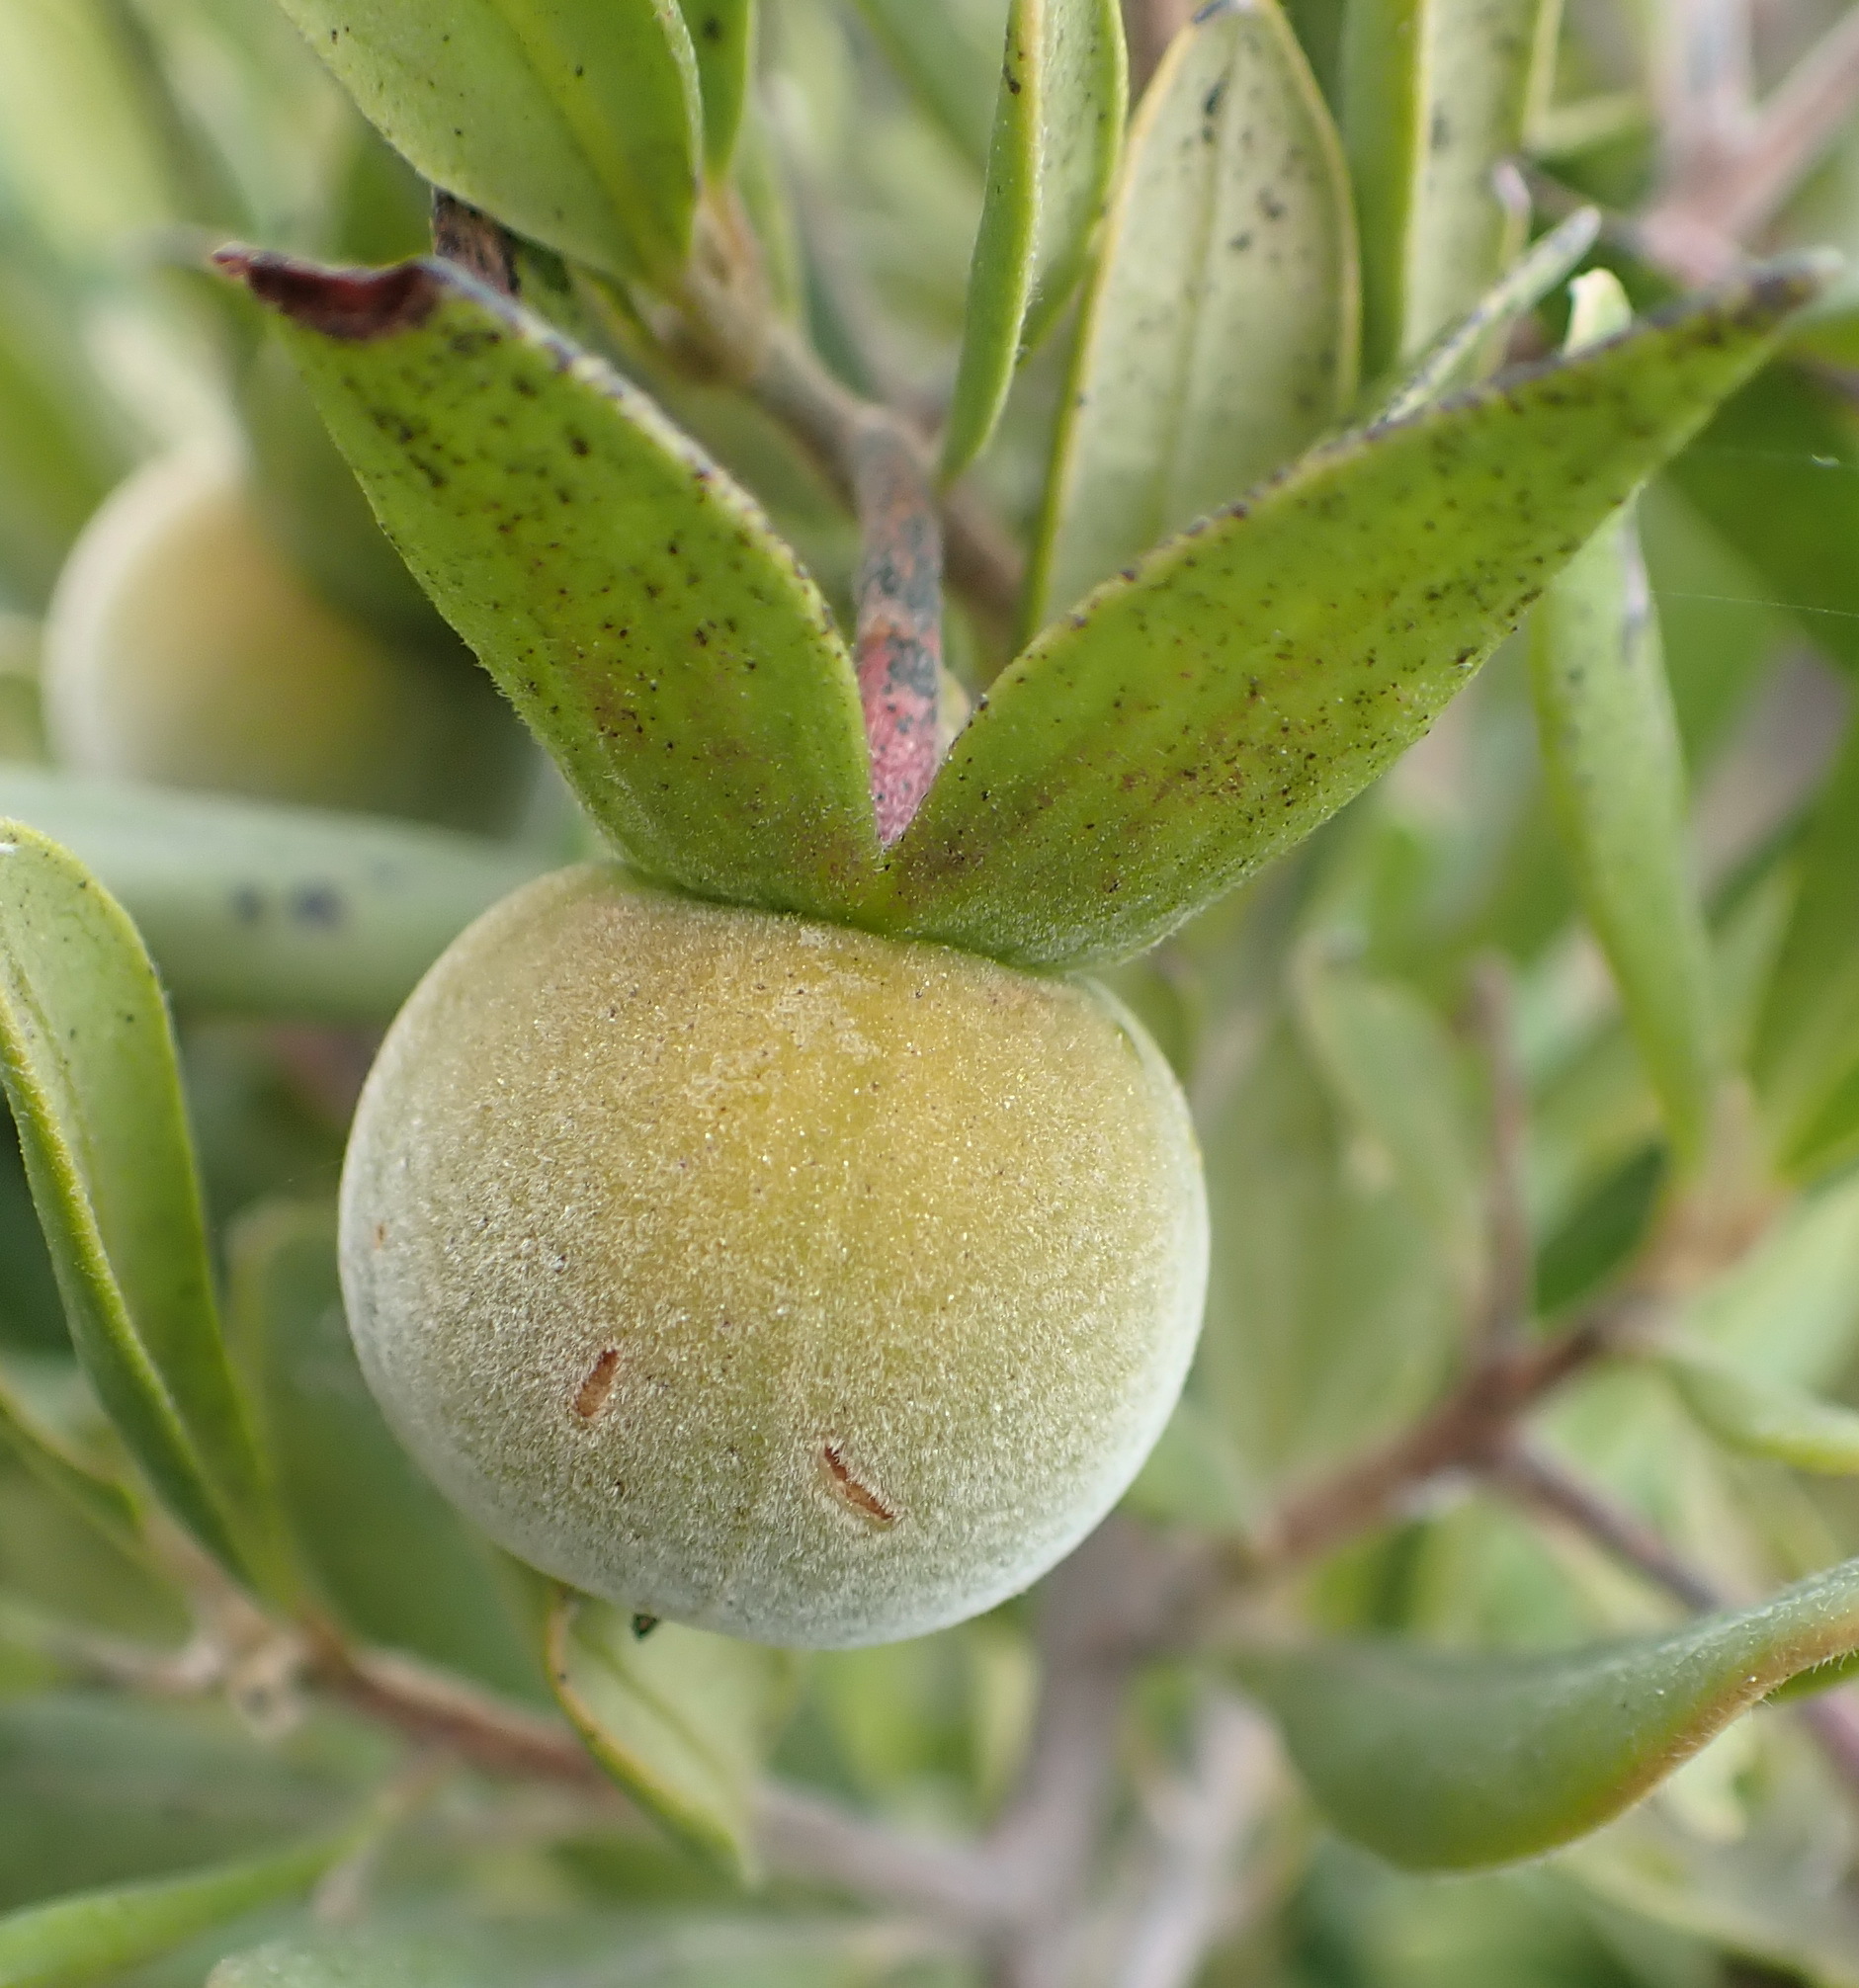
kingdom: Plantae
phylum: Tracheophyta
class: Magnoliopsida
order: Ericales
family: Ebenaceae
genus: Diospyros
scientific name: Diospyros dichrophylla
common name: Common star-apple
